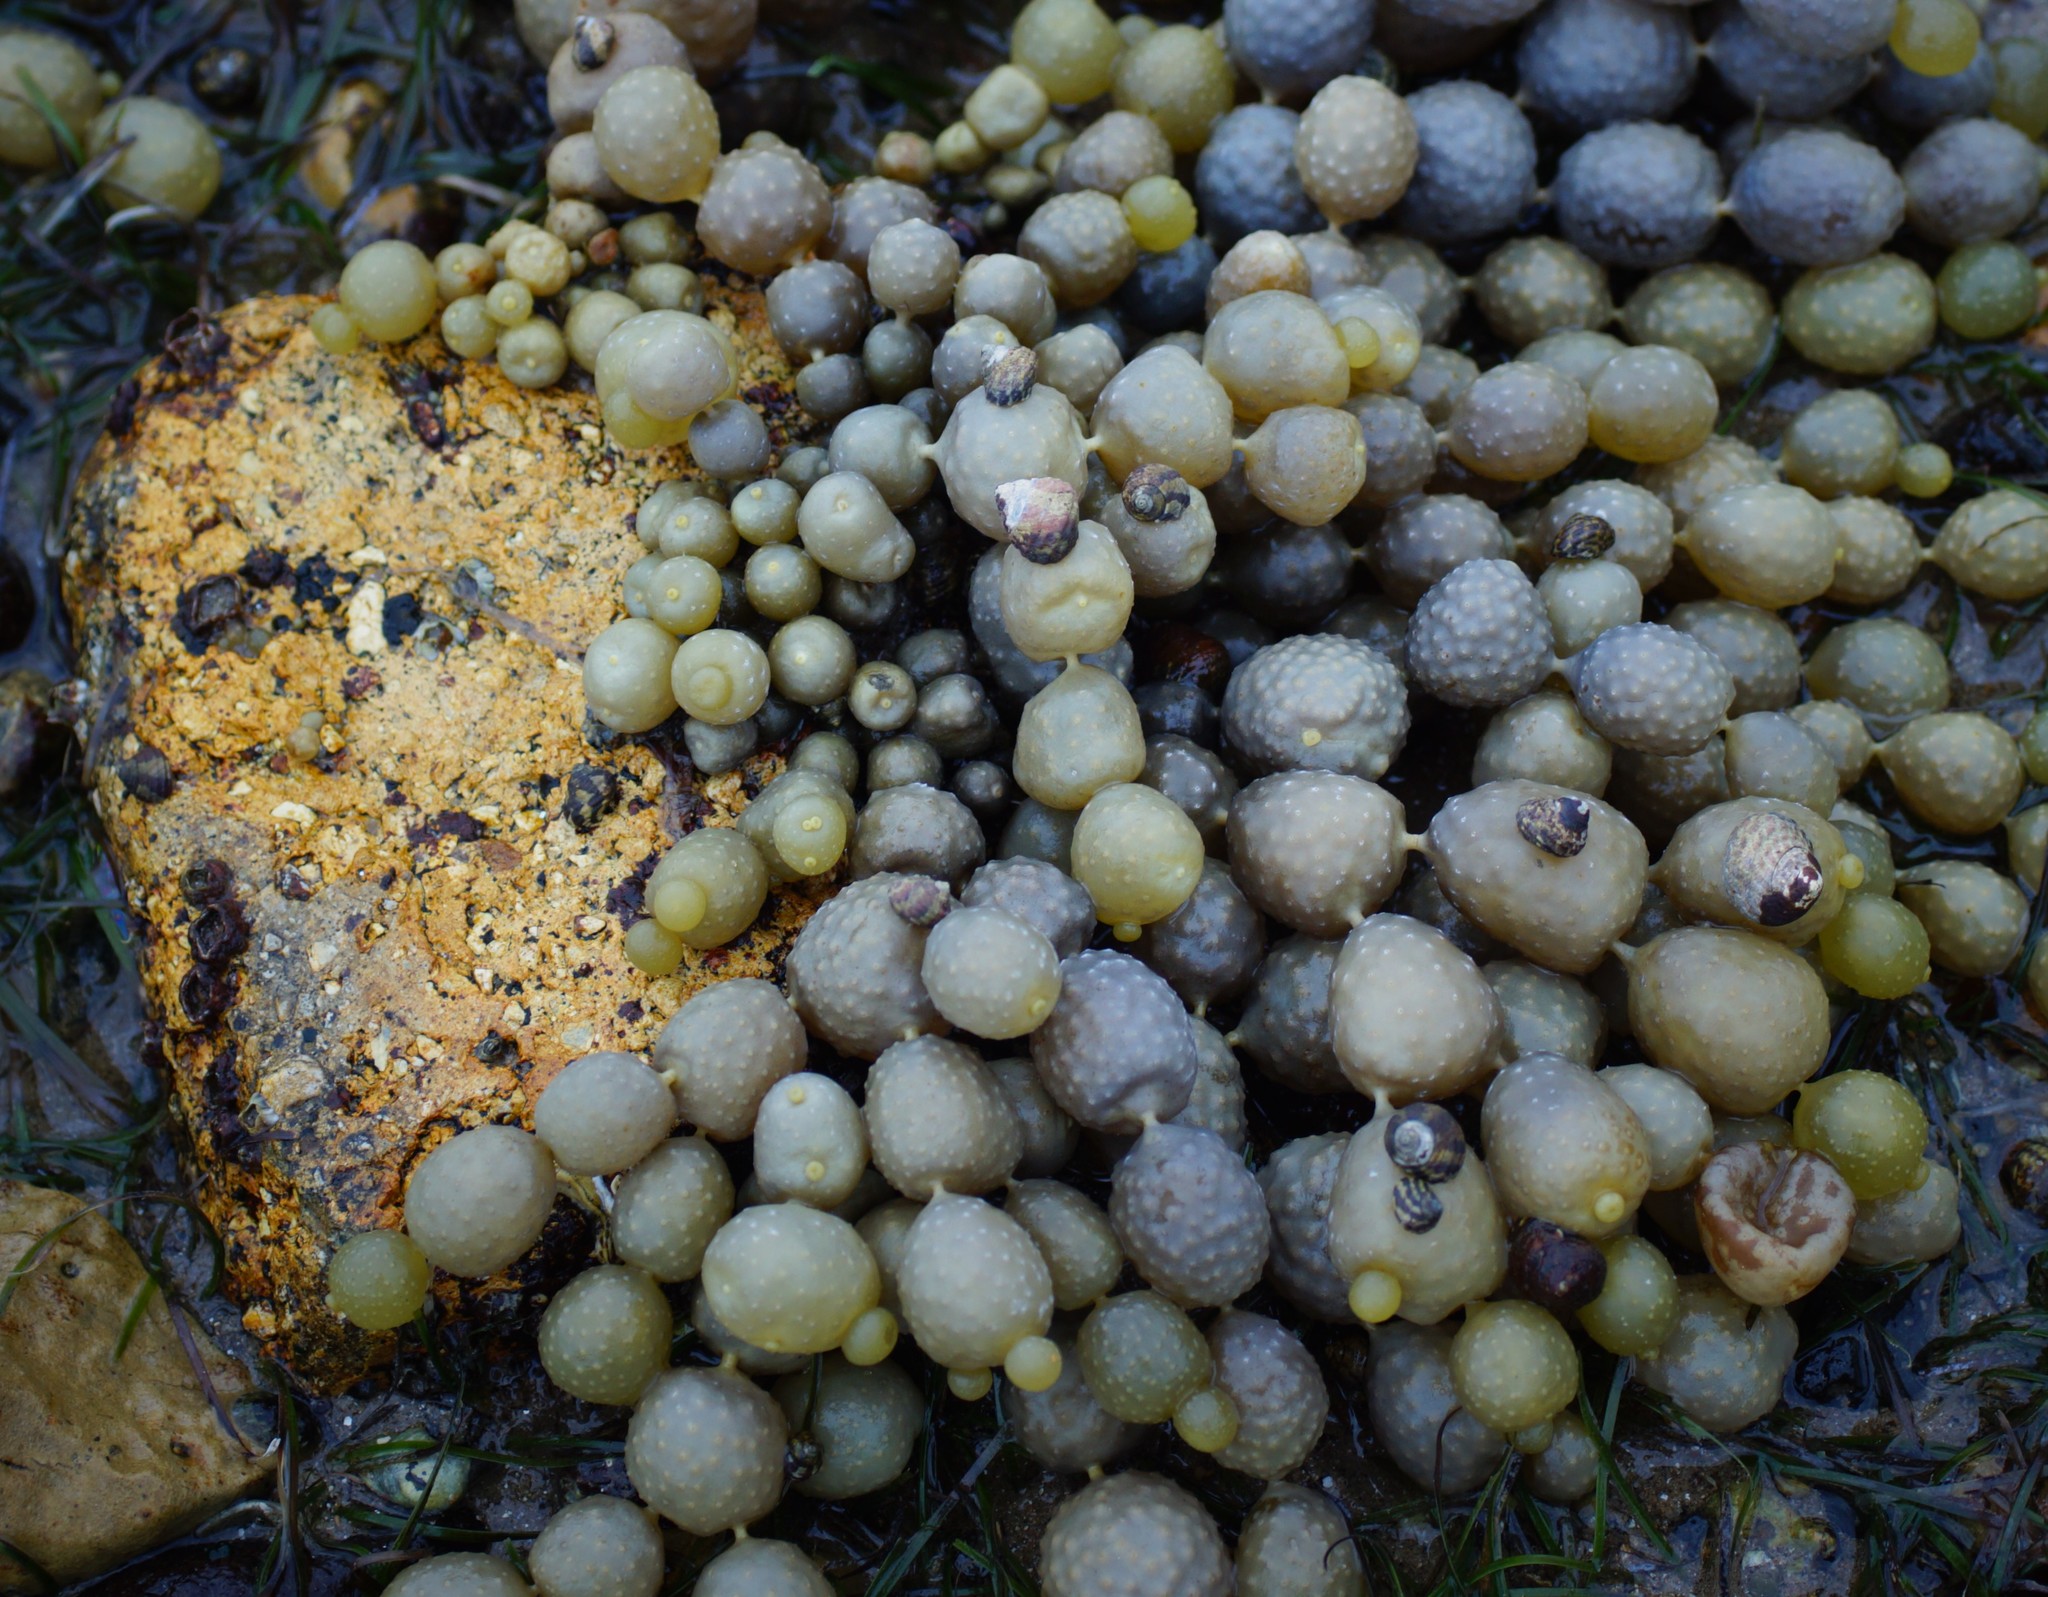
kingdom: Chromista
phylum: Ochrophyta
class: Phaeophyceae
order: Fucales
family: Hormosiraceae
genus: Hormosira
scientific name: Hormosira banksii
